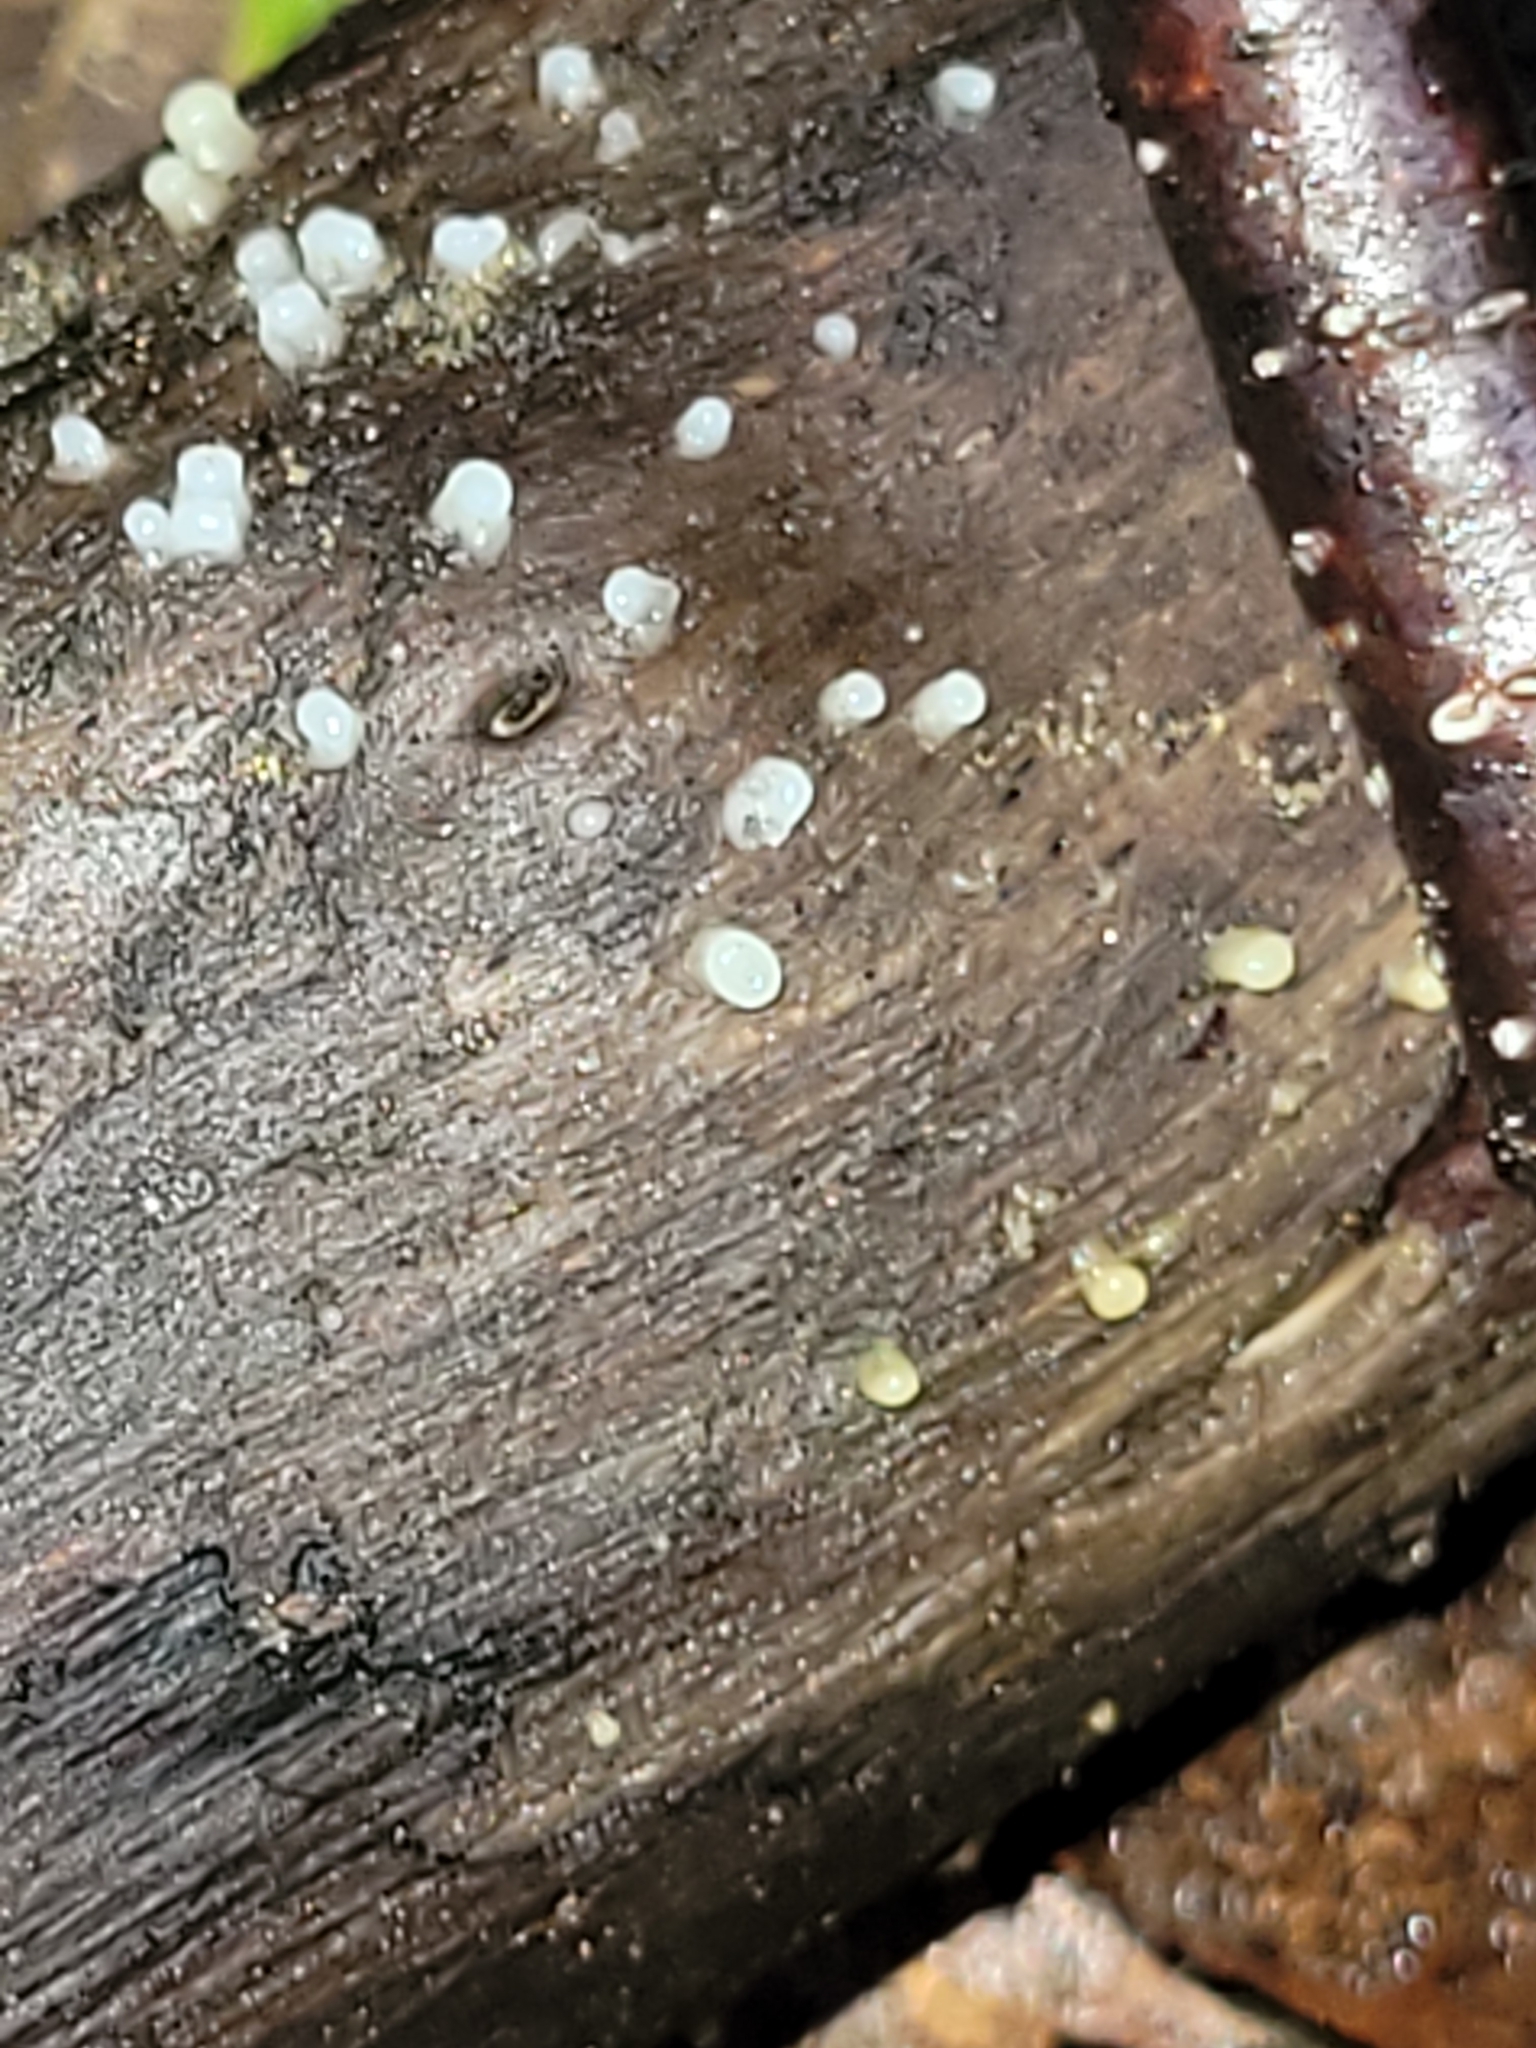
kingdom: Fungi
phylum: Basidiomycota
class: Atractiellomycetes
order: Atractiellales
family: Phleogenaceae
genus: Helicogloea
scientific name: Helicogloea compressa
